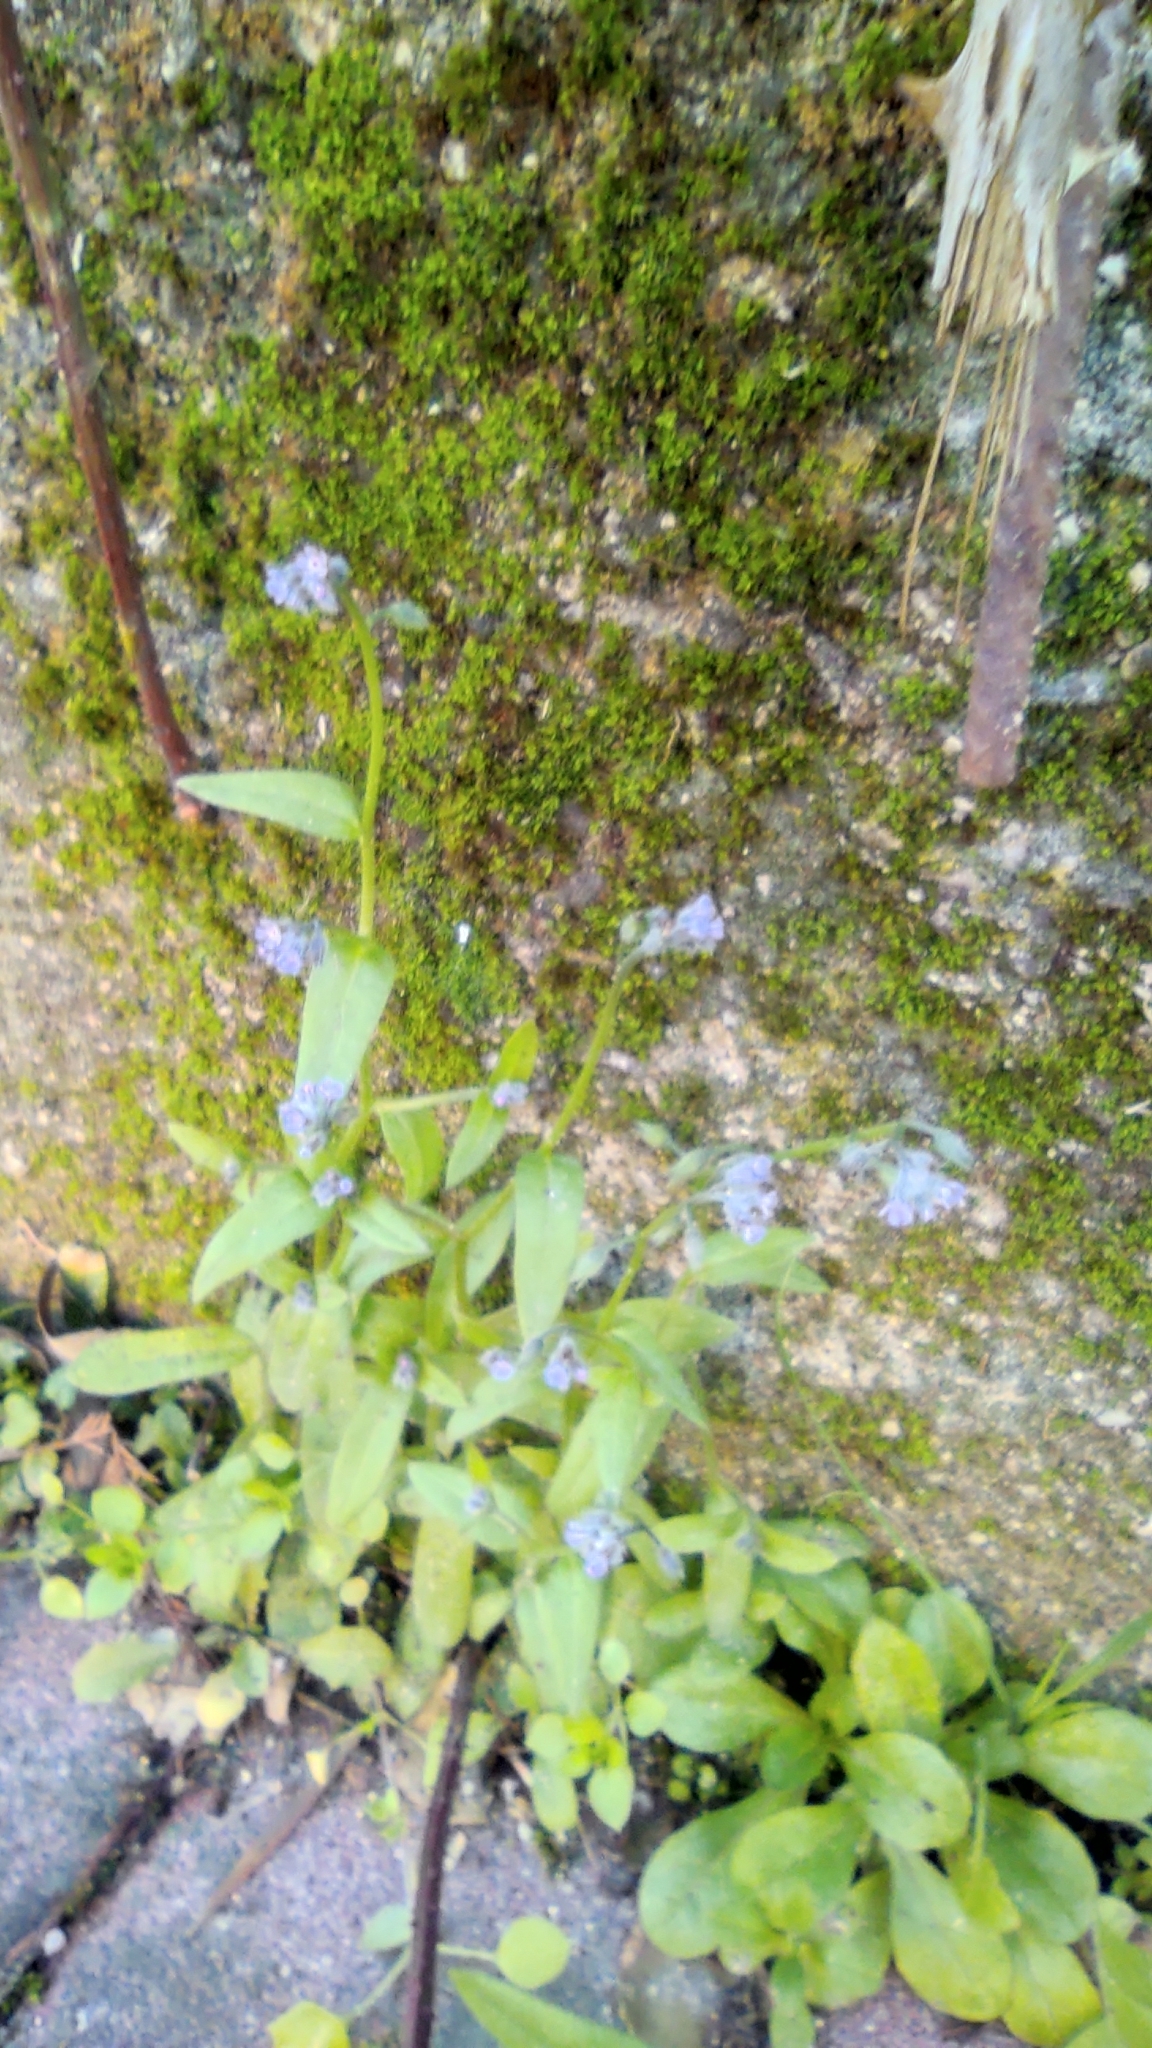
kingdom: Plantae
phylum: Tracheophyta
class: Magnoliopsida
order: Boraginales
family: Boraginaceae
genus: Myosotis
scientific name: Myosotis arvensis
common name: Field forget-me-not
